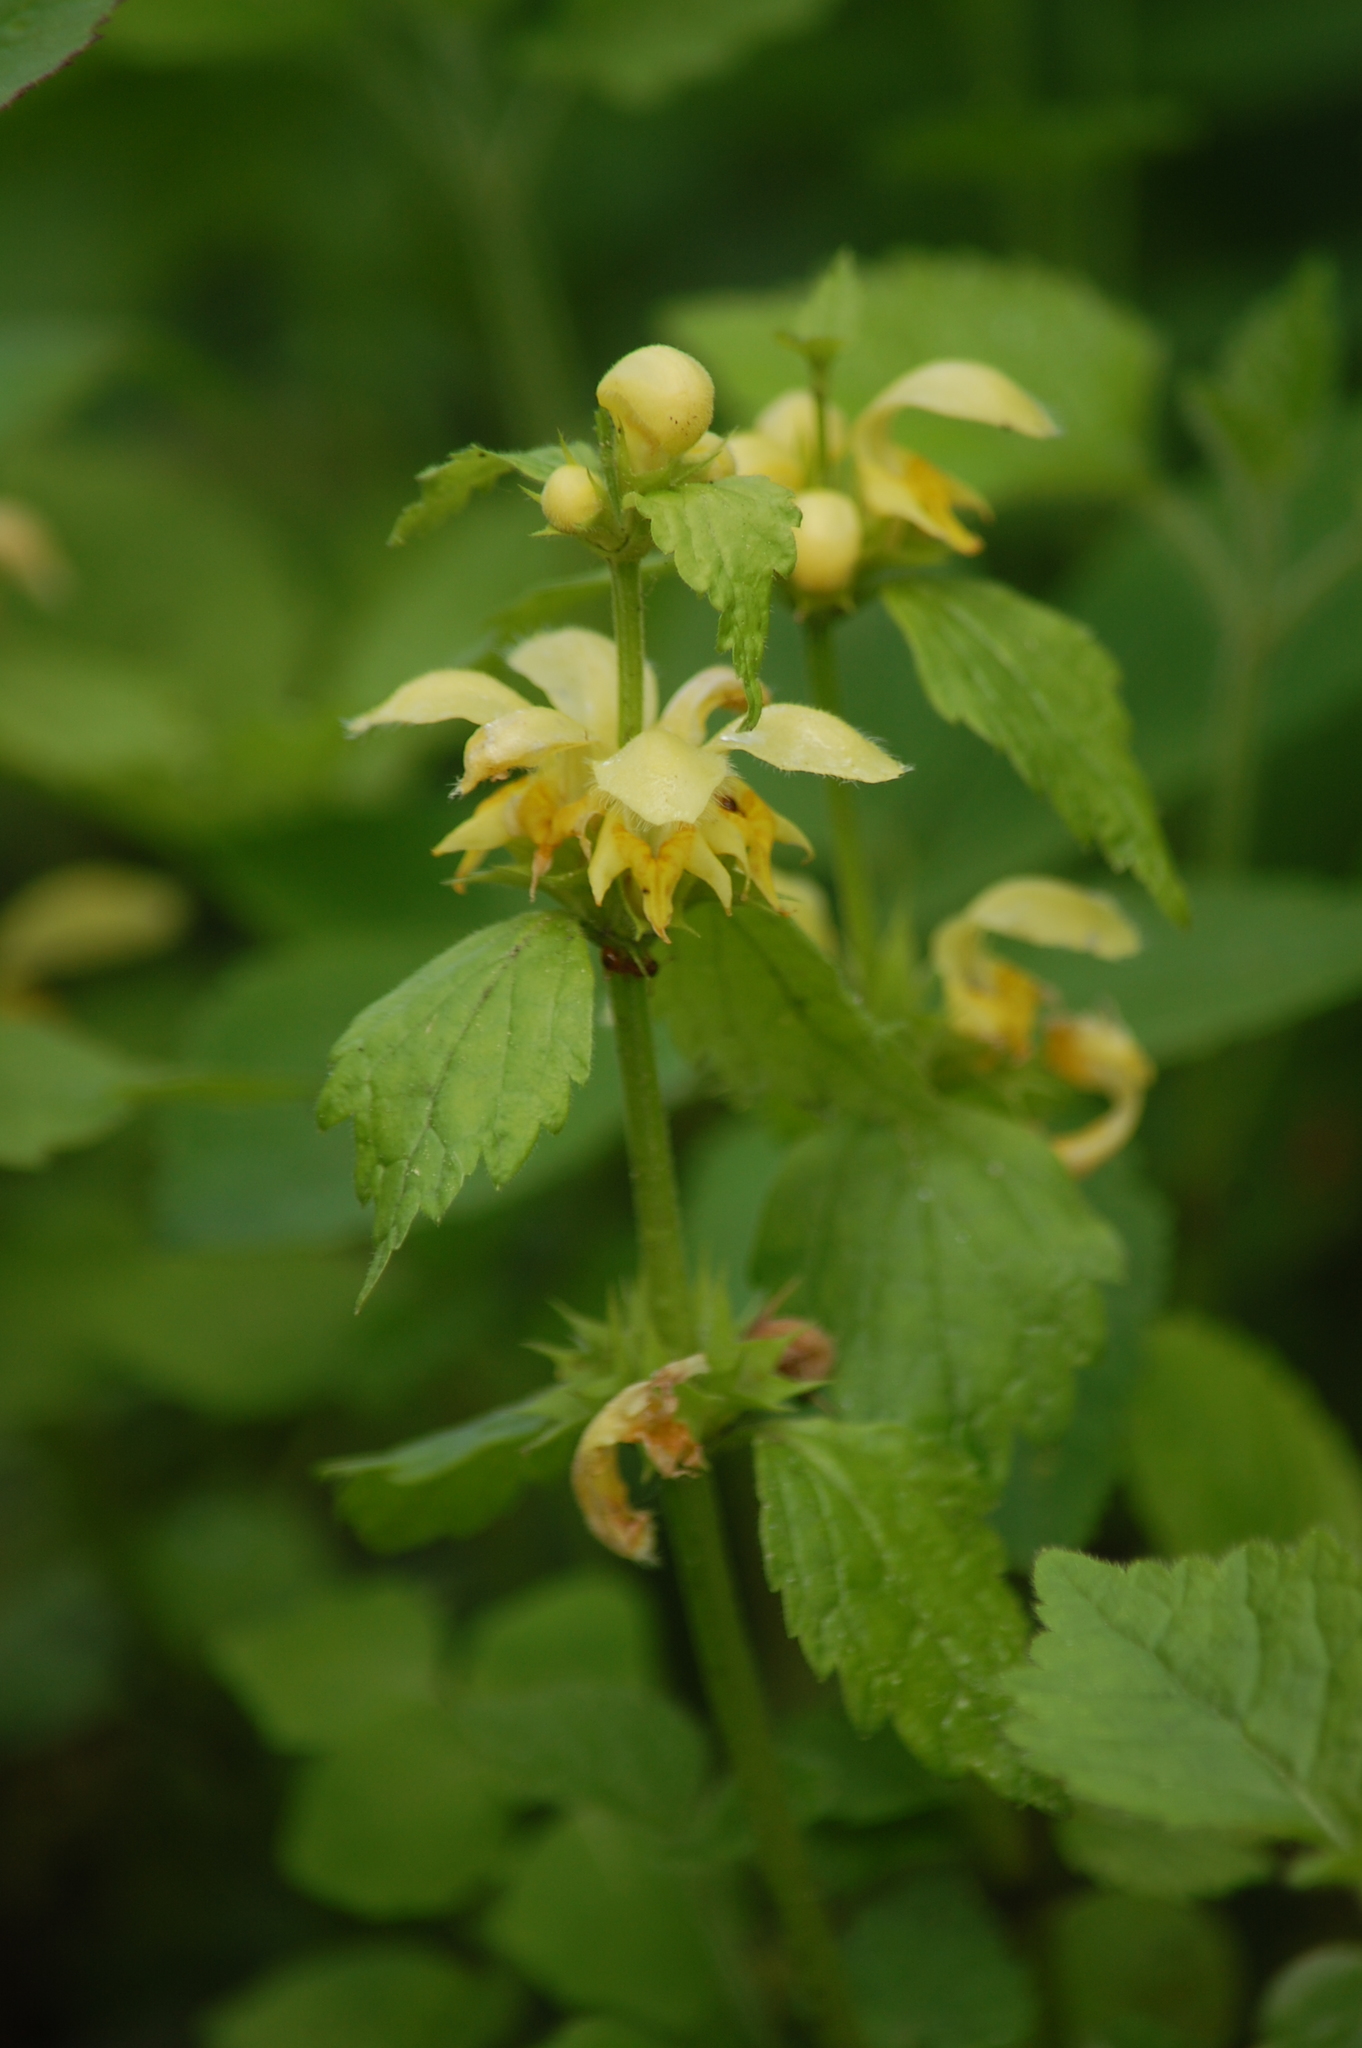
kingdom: Plantae
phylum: Tracheophyta
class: Magnoliopsida
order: Lamiales
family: Lamiaceae
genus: Lamium
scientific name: Lamium galeobdolon
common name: Yellow archangel
